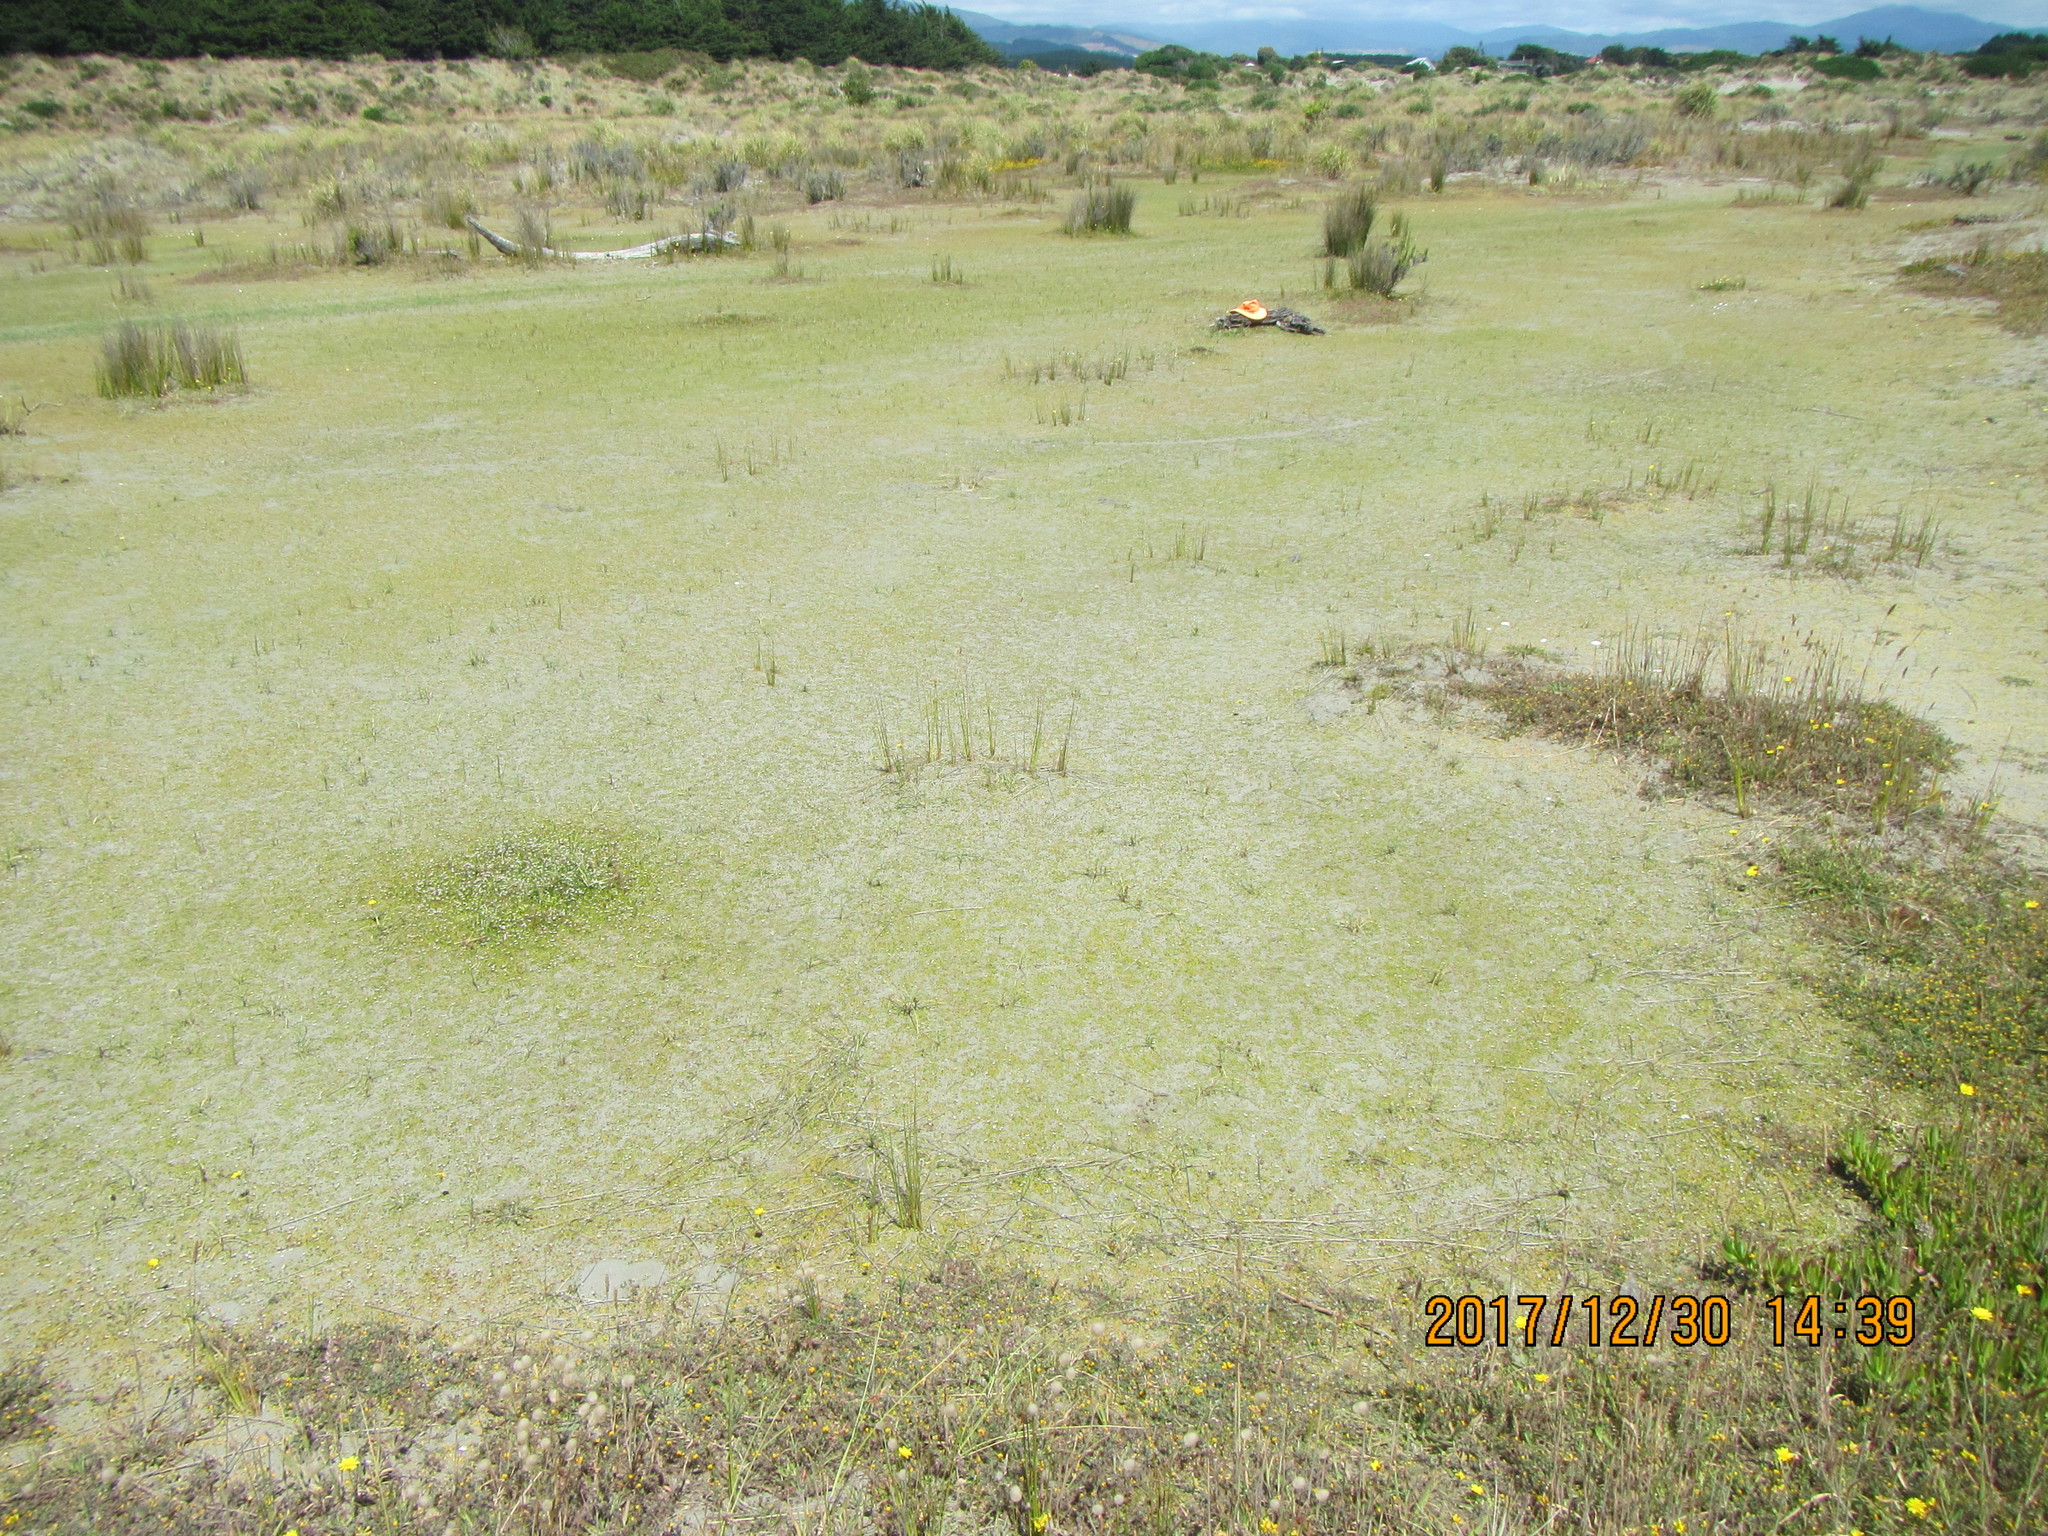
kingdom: Animalia
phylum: Platyhelminthes
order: Tricladida
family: Geoplanidae
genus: Caenoplana
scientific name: Caenoplana coerulea
